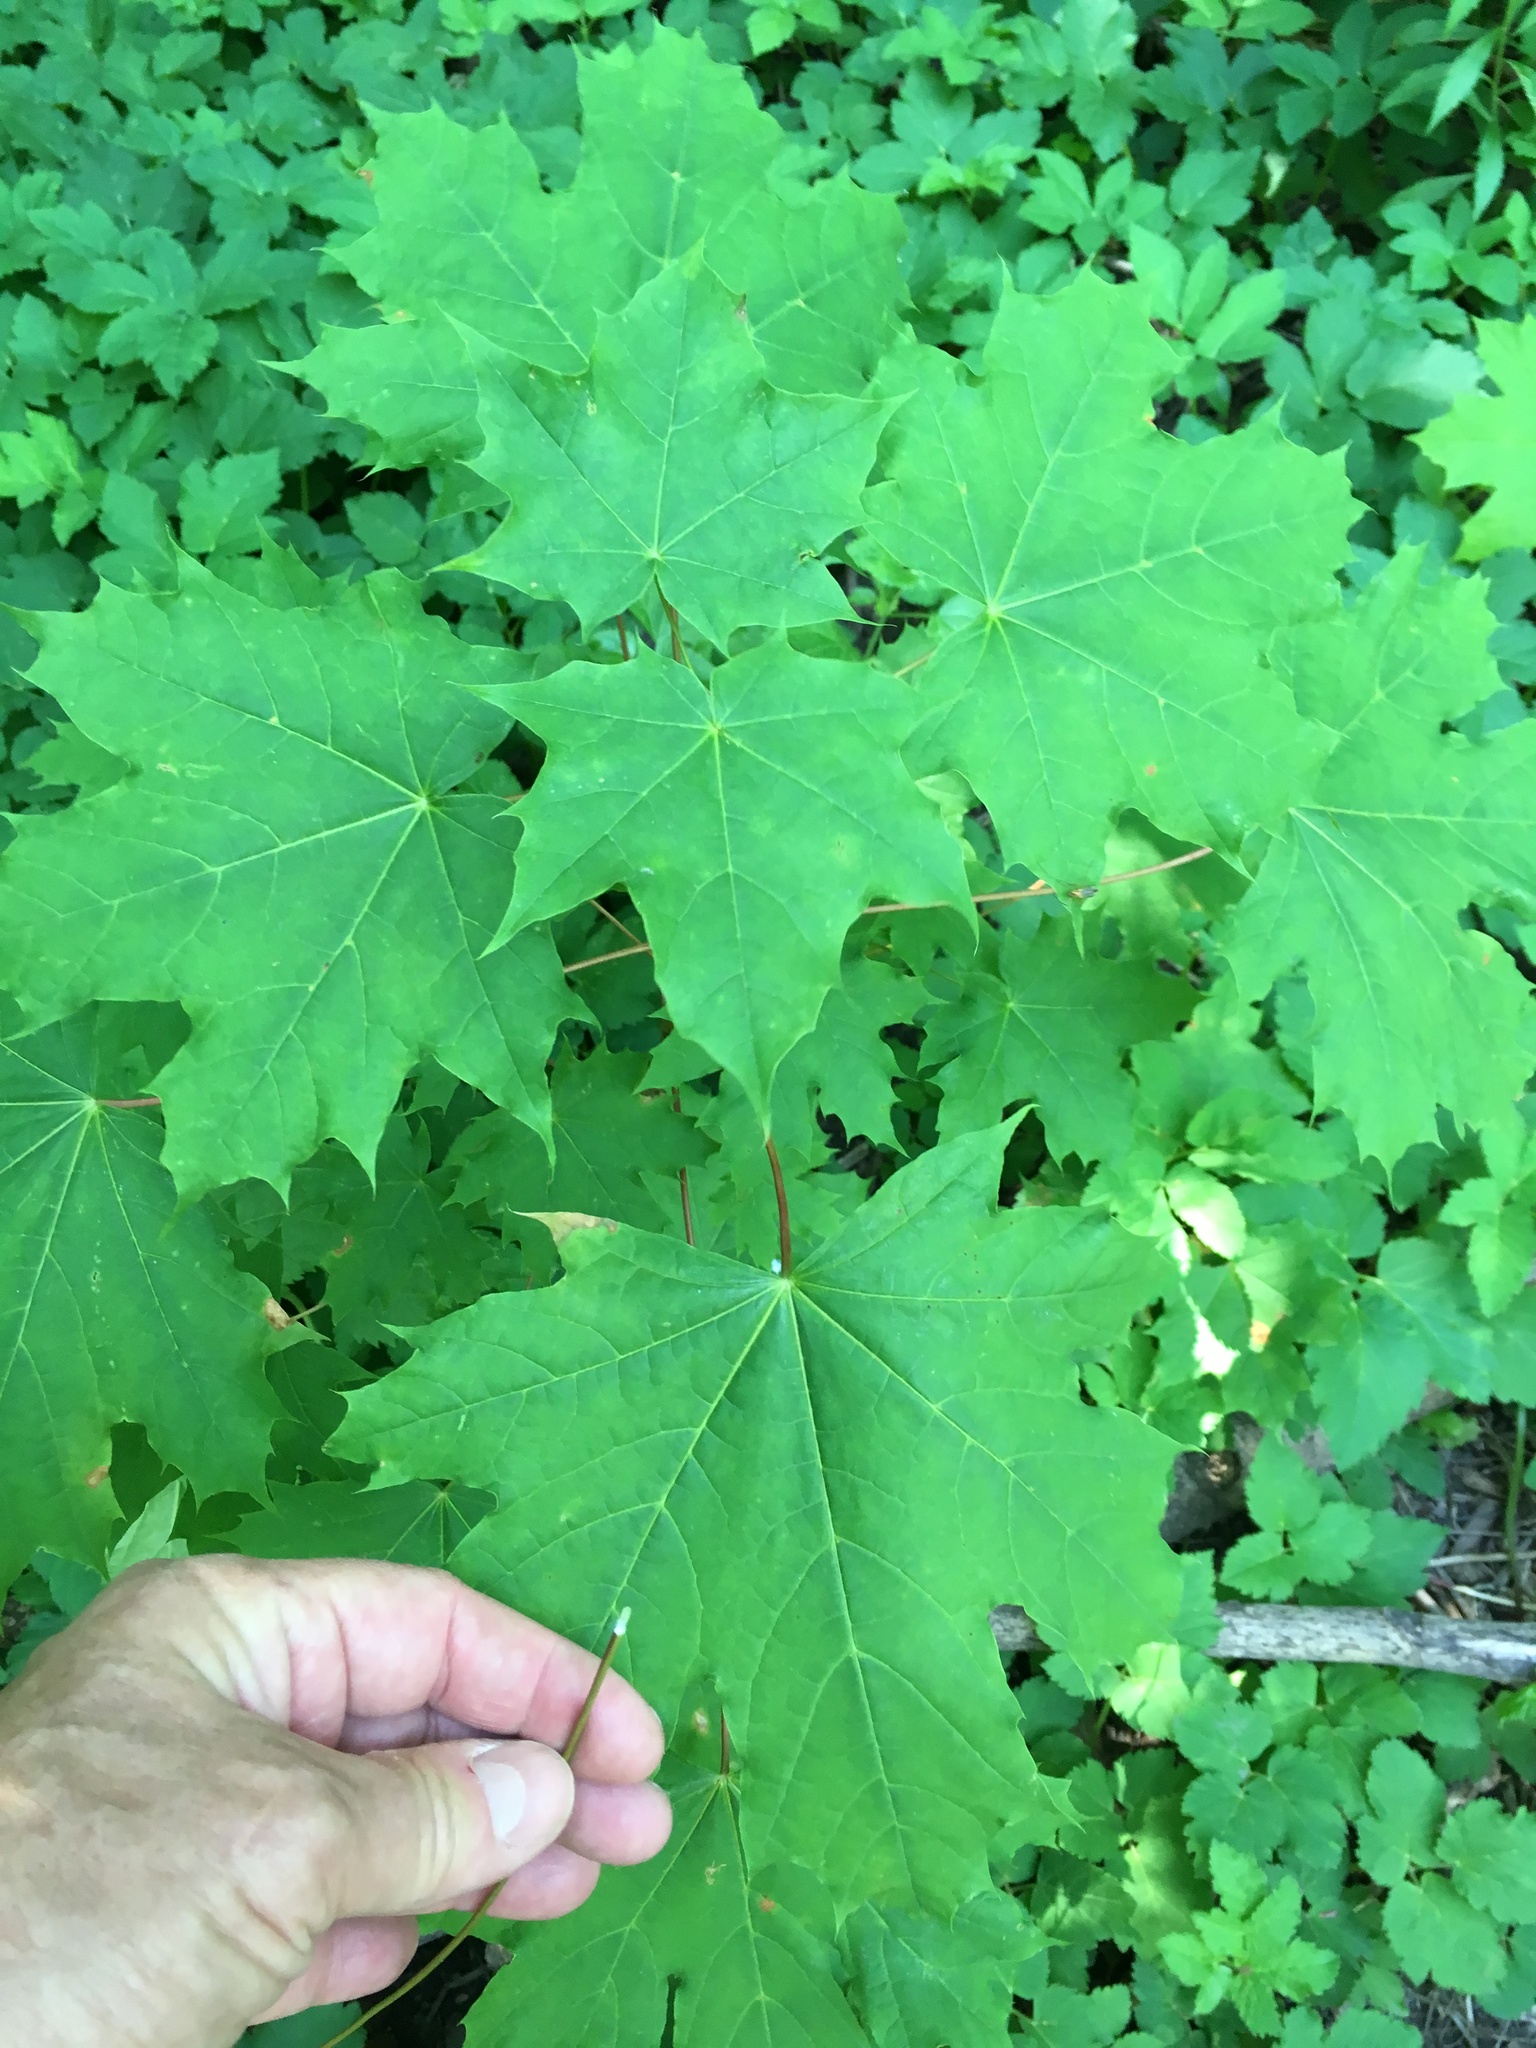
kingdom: Plantae
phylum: Tracheophyta
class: Magnoliopsida
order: Sapindales
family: Sapindaceae
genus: Acer
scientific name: Acer platanoides
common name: Norway maple
